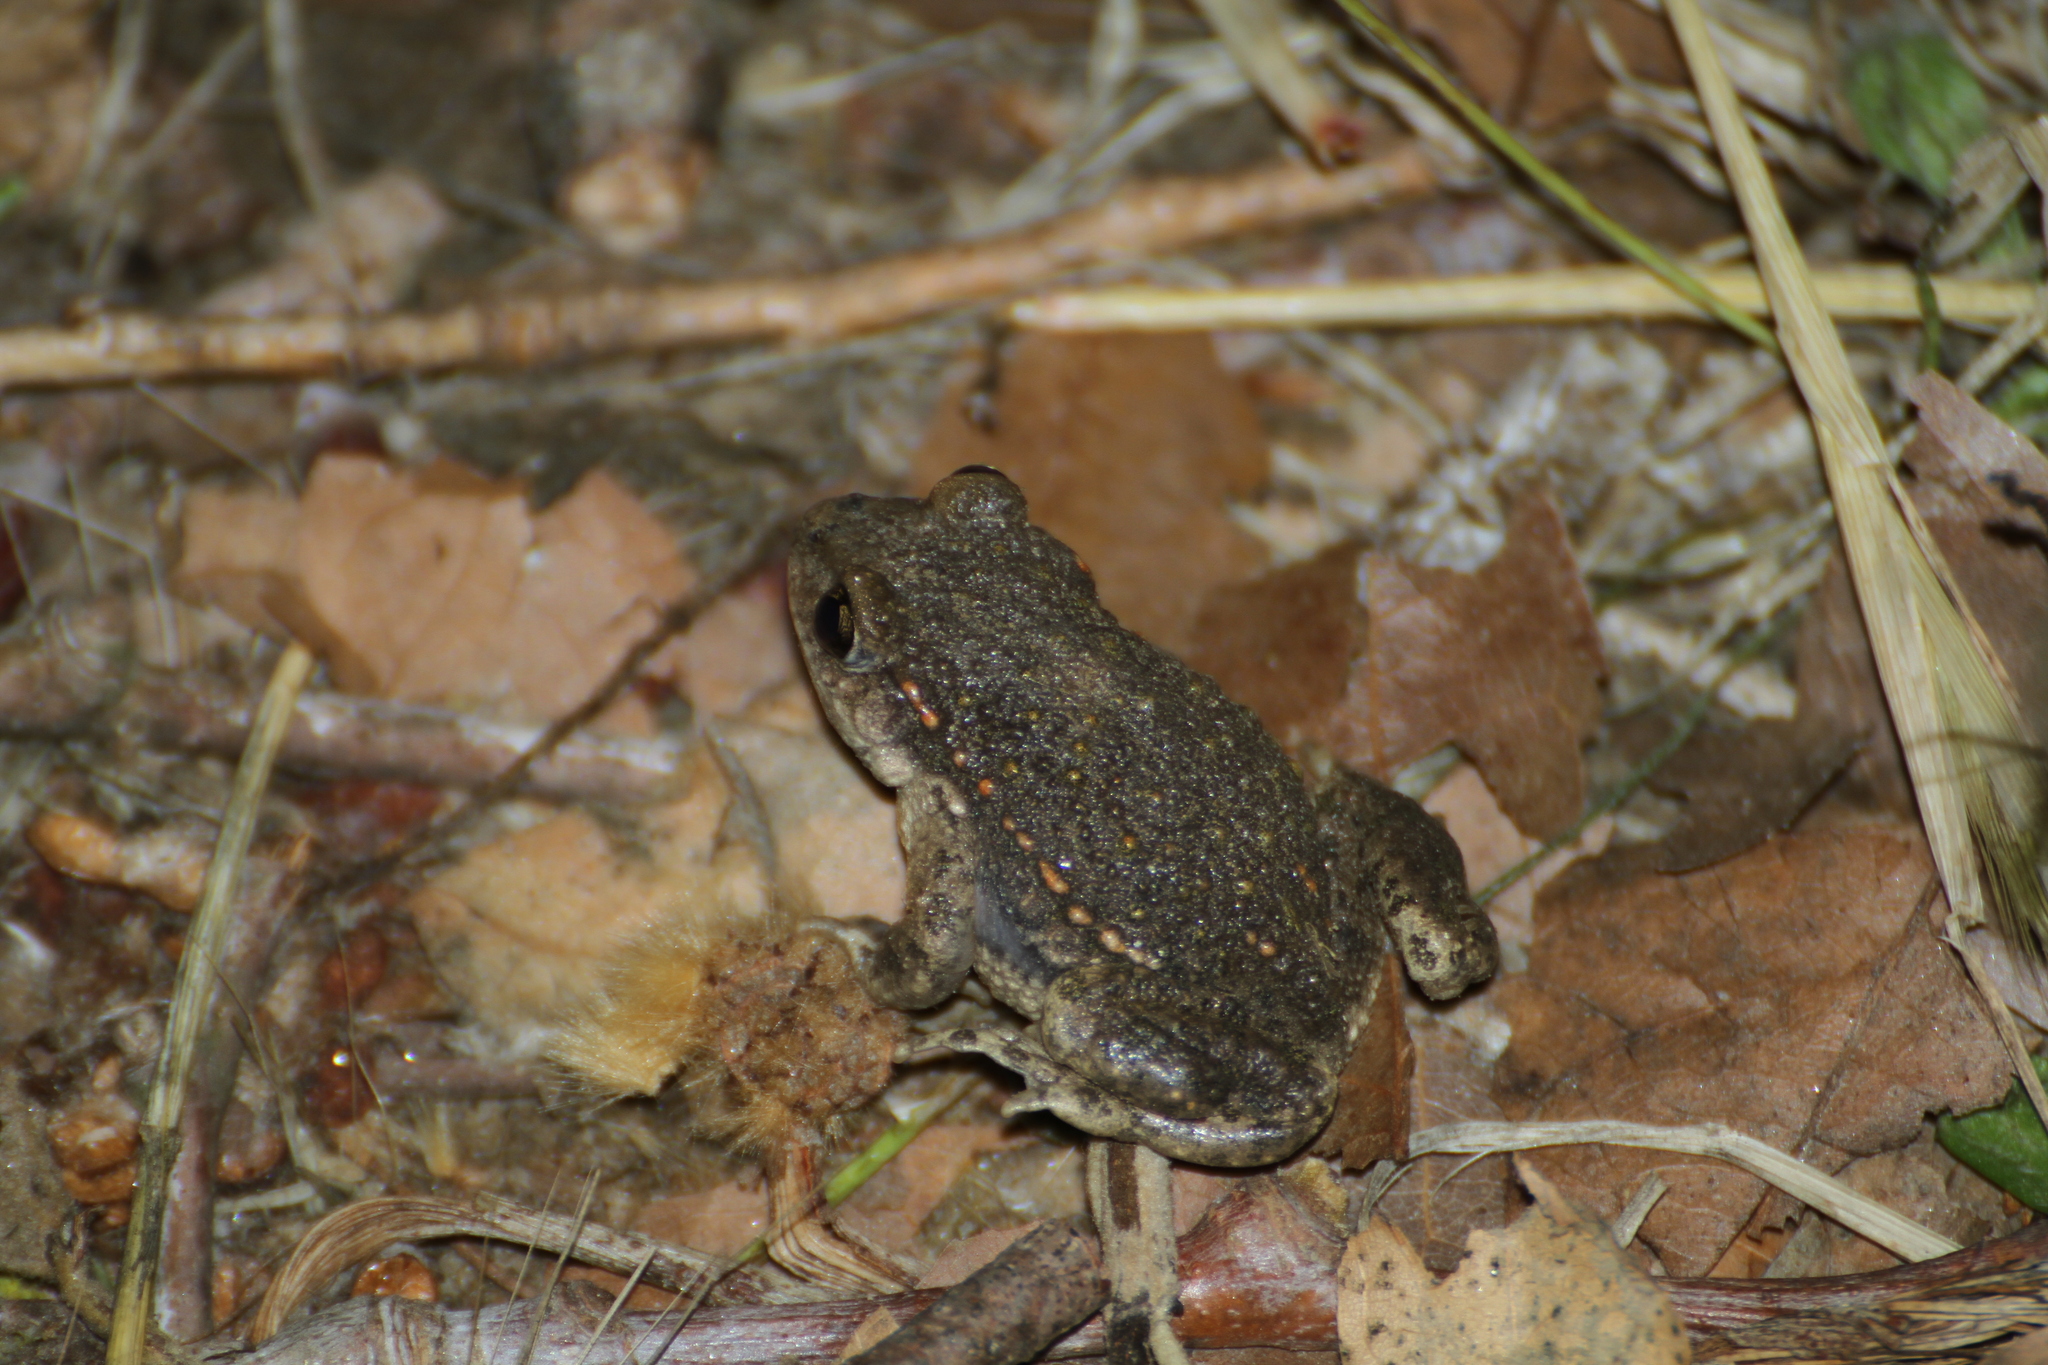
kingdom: Animalia
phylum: Chordata
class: Amphibia
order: Anura
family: Alytidae
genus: Alytes
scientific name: Alytes obstetricans
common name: Midwife toad
